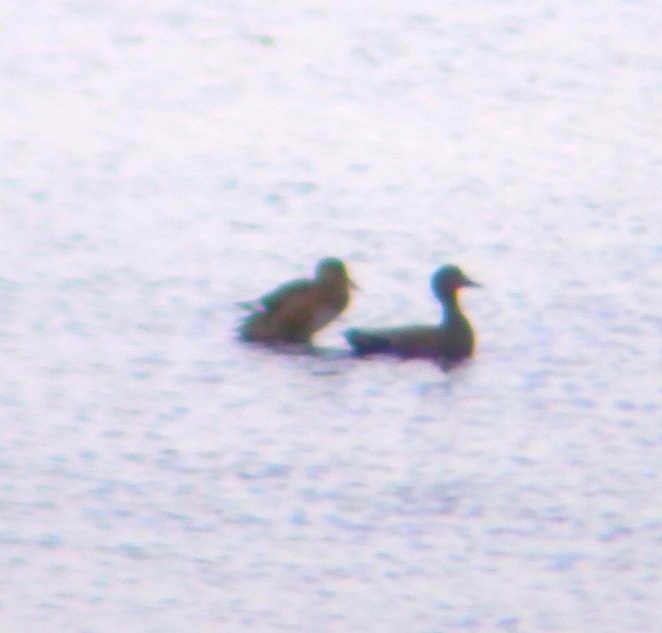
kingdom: Animalia
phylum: Chordata
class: Aves
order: Anseriformes
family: Anatidae
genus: Mareca
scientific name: Mareca strepera
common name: Gadwall
